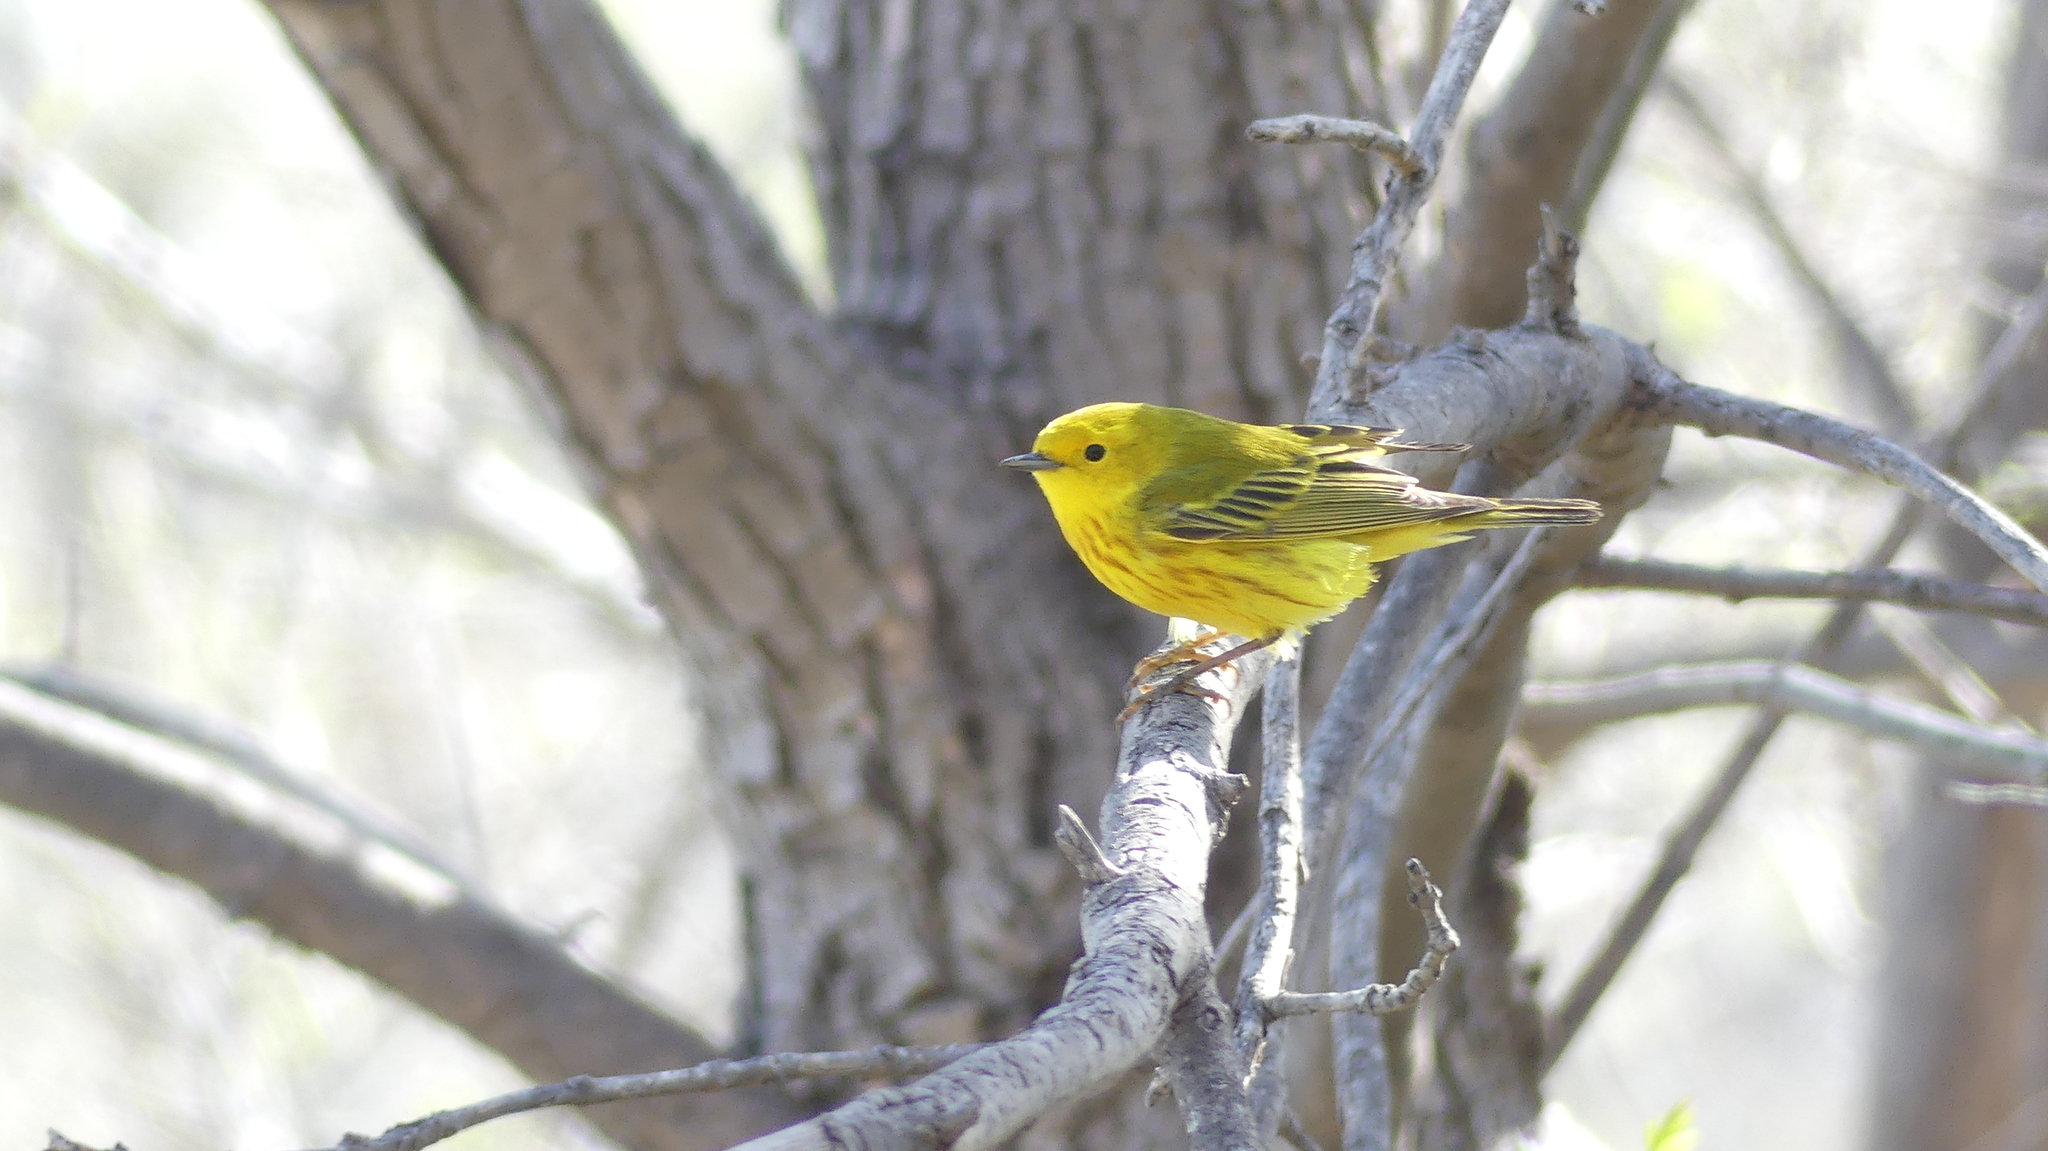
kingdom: Animalia
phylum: Chordata
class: Aves
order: Passeriformes
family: Parulidae
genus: Setophaga
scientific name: Setophaga petechia
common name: Yellow warbler
